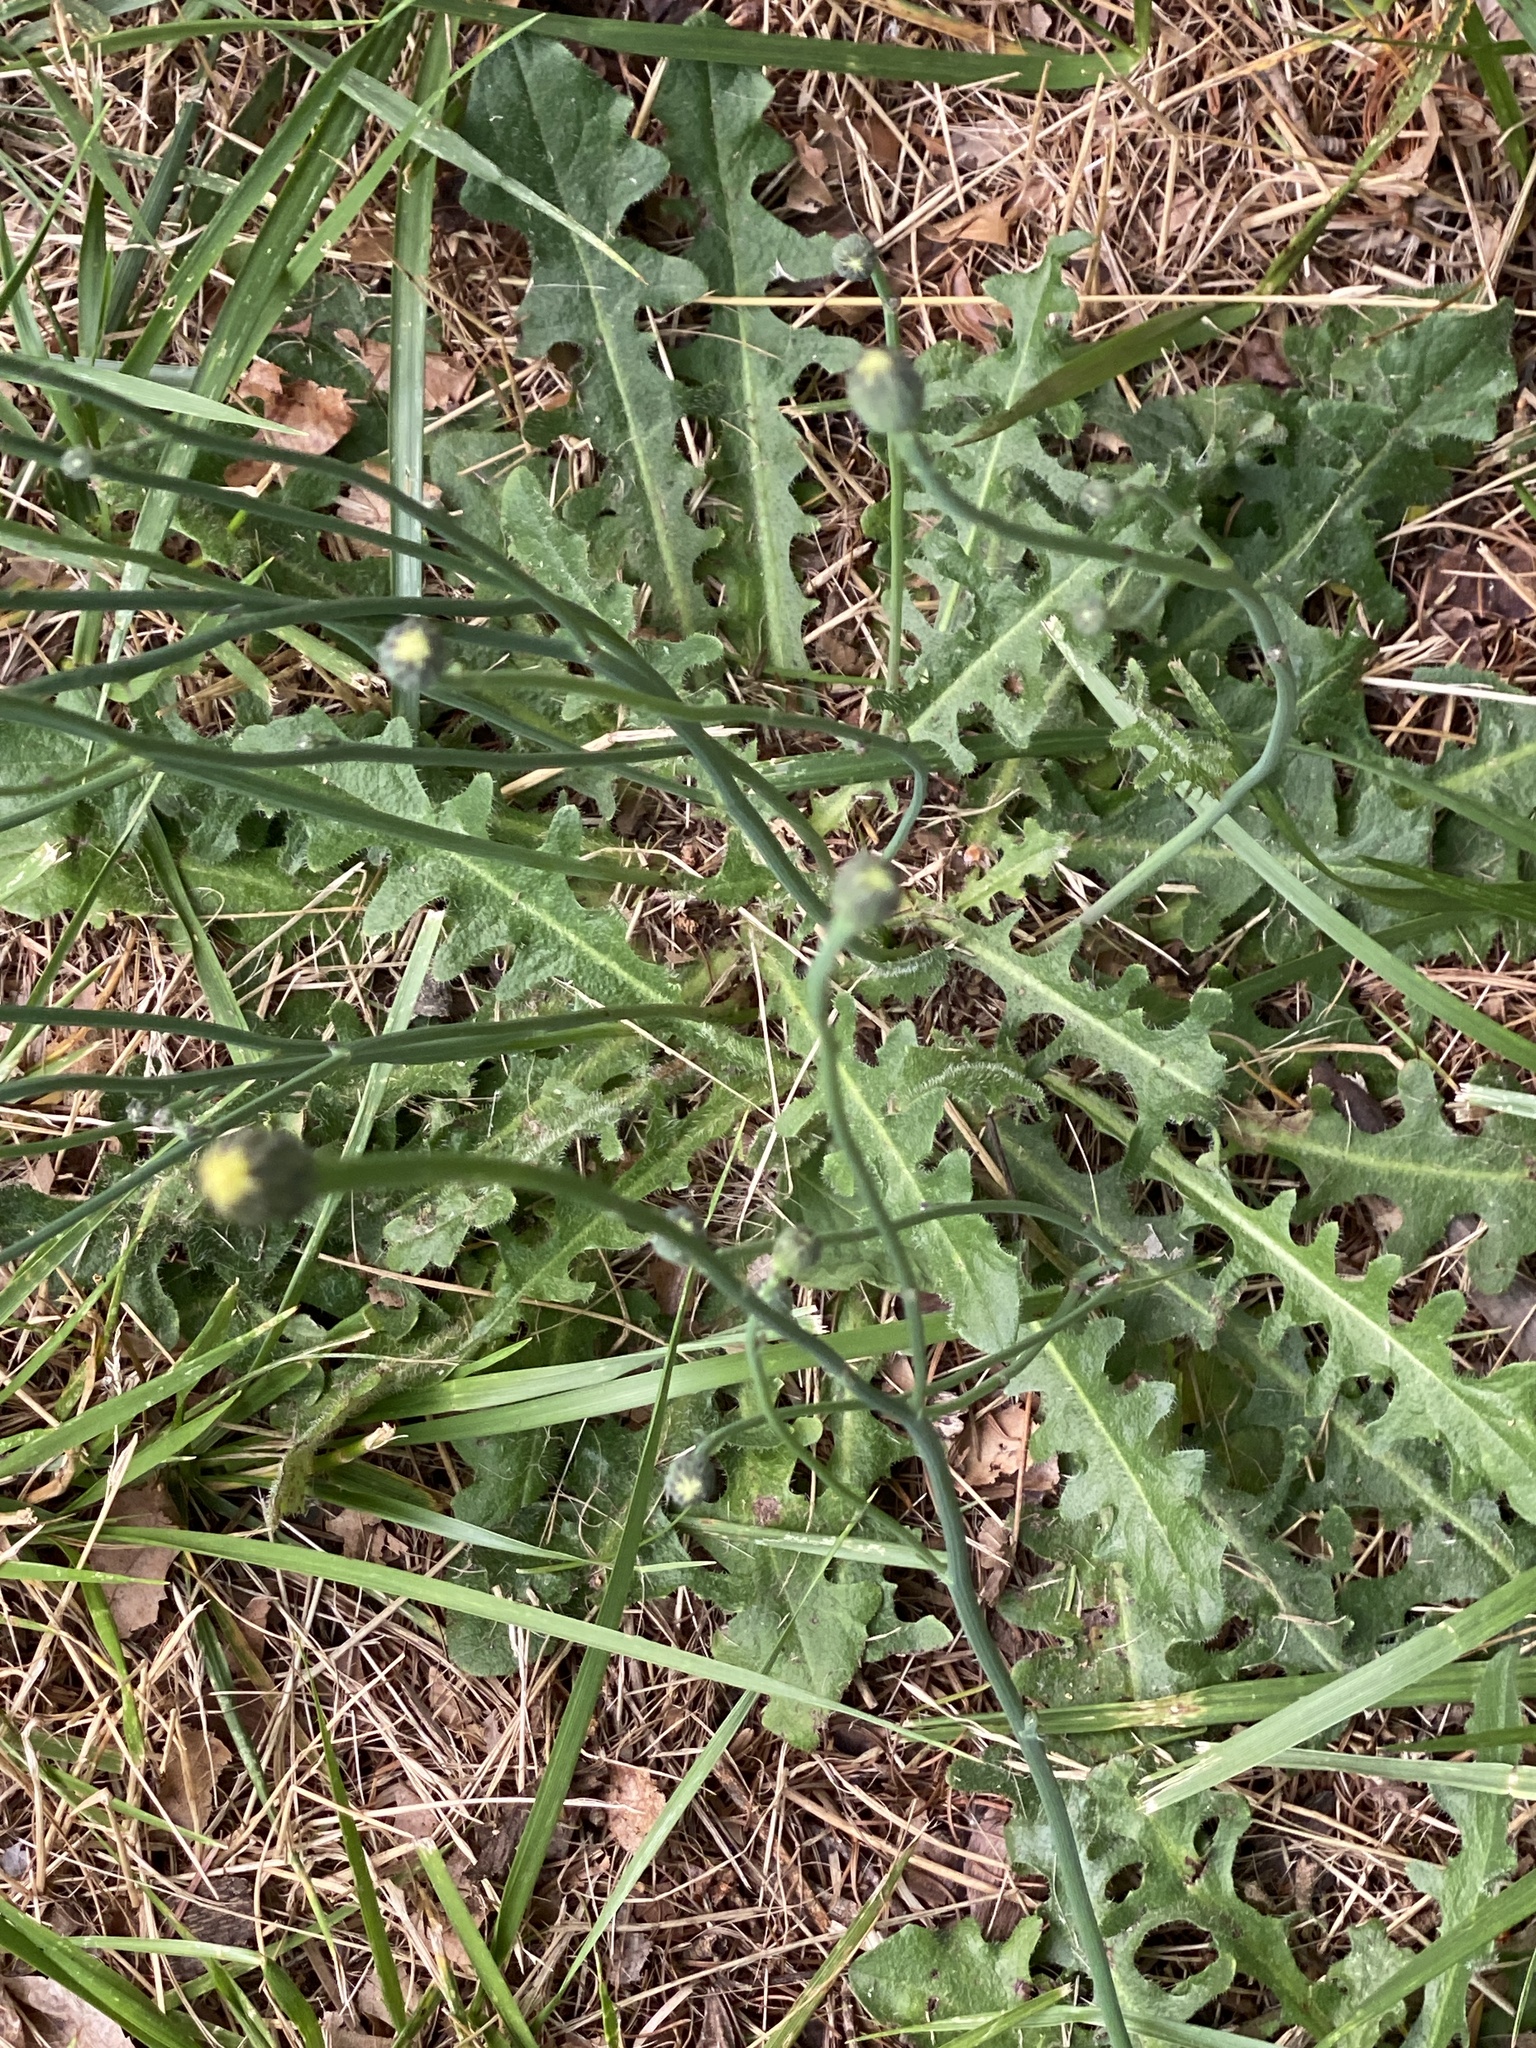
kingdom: Plantae
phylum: Tracheophyta
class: Magnoliopsida
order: Asterales
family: Asteraceae
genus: Hypochaeris
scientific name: Hypochaeris radicata
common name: Flatweed
